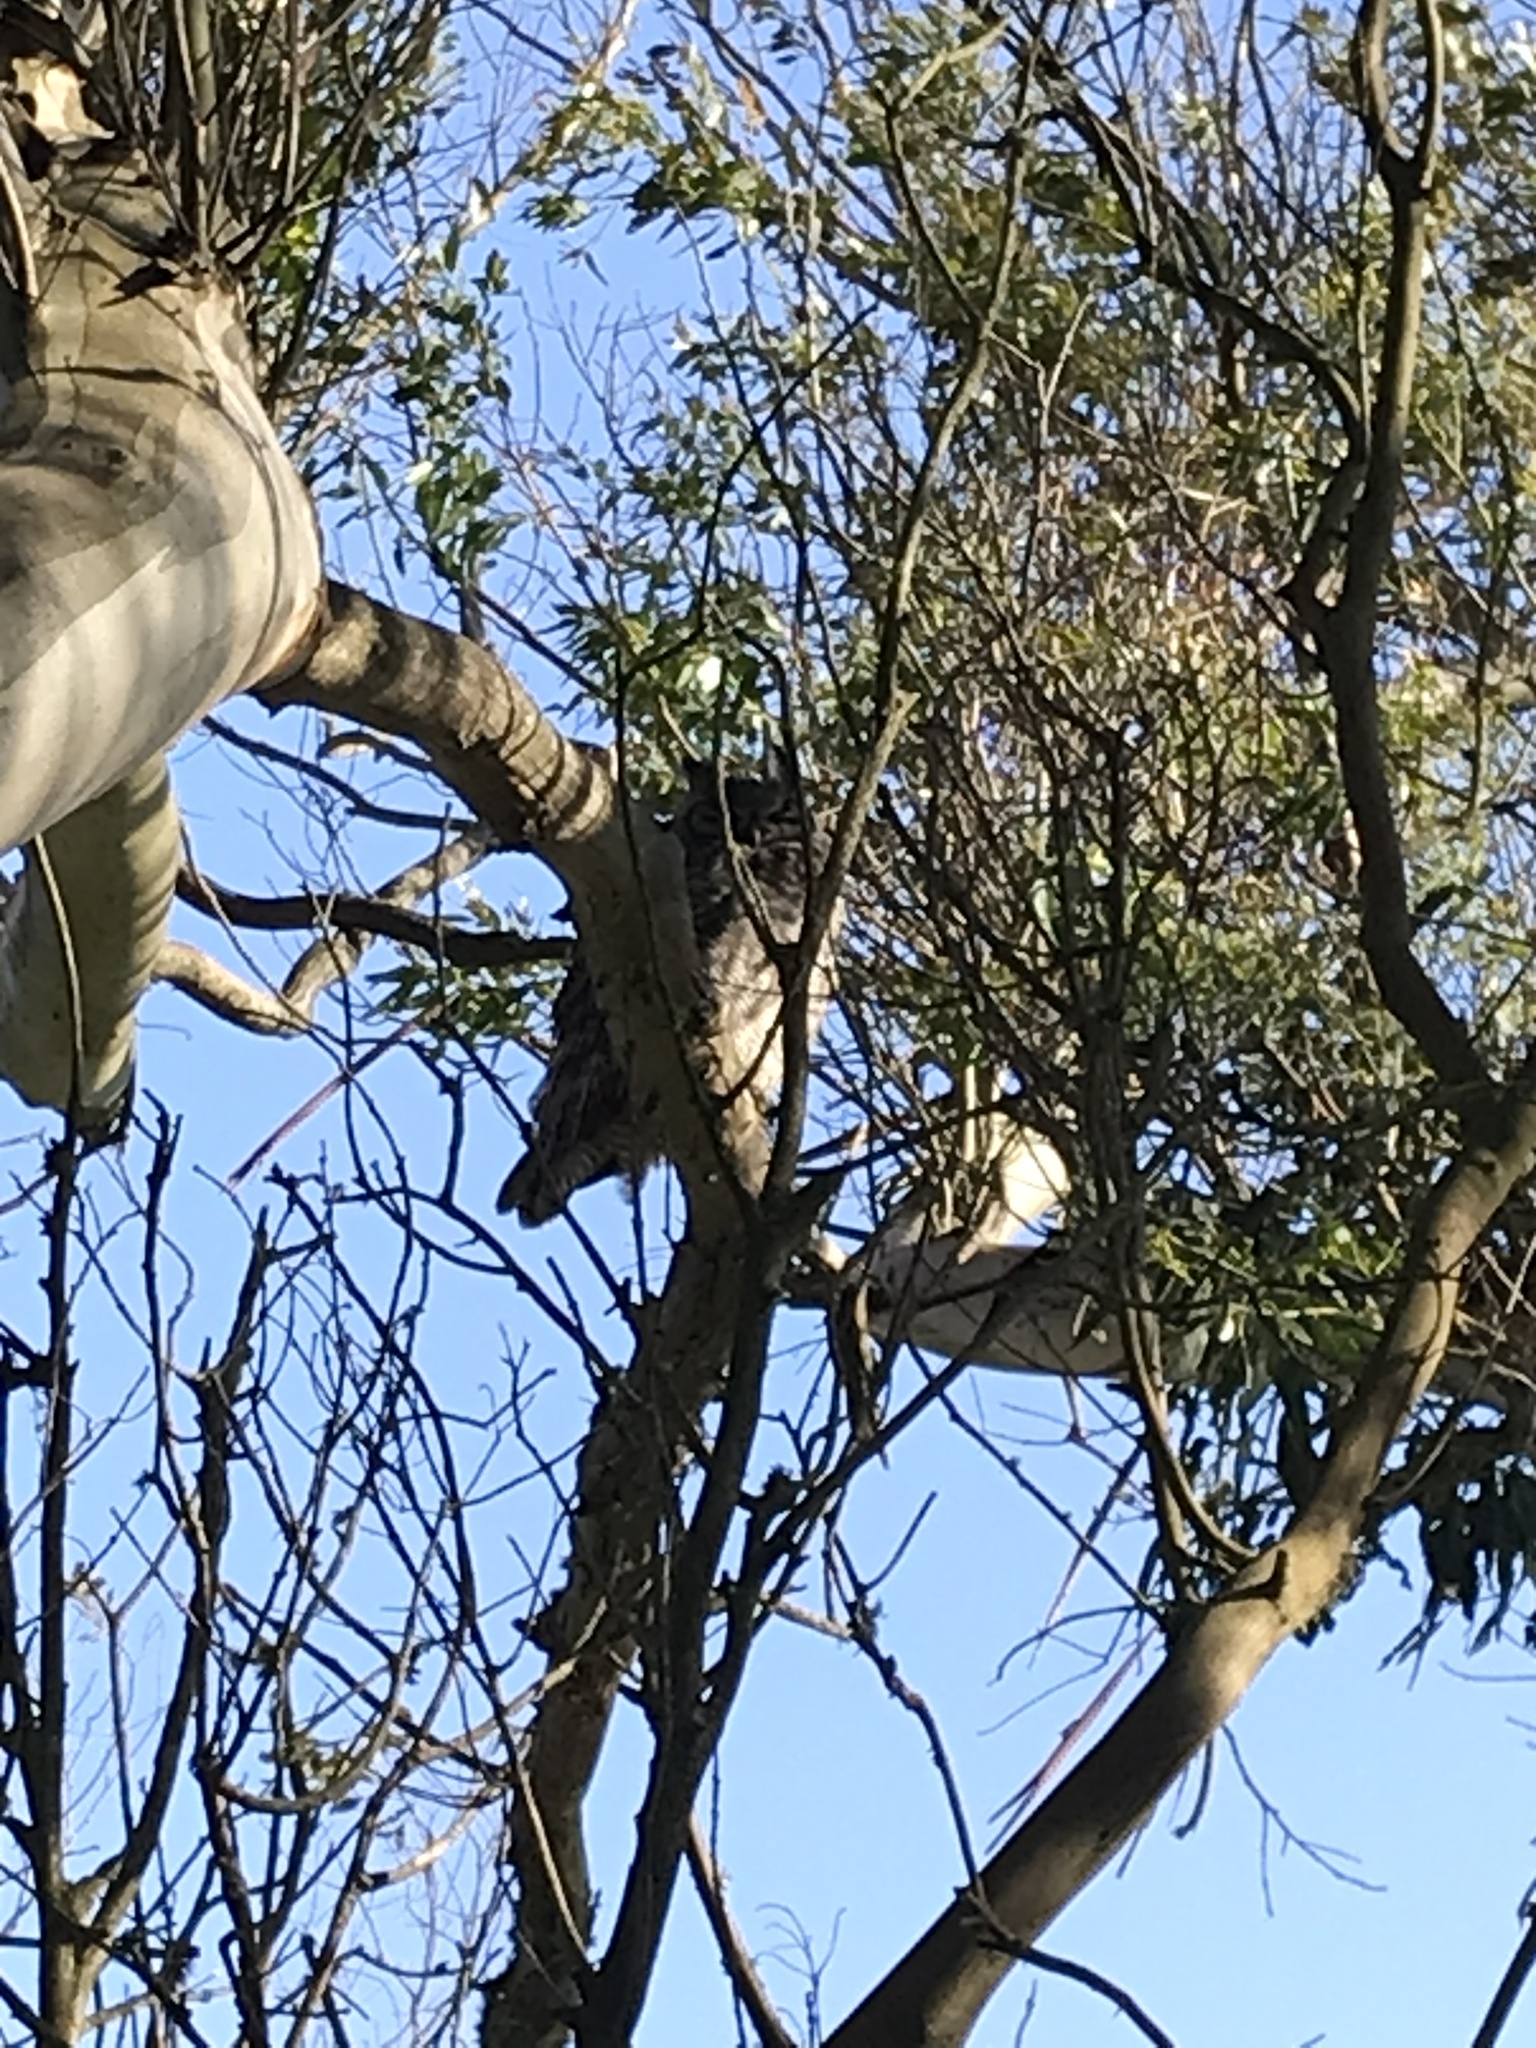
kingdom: Animalia
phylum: Chordata
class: Aves
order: Strigiformes
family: Strigidae
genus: Bubo
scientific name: Bubo virginianus
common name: Great horned owl
